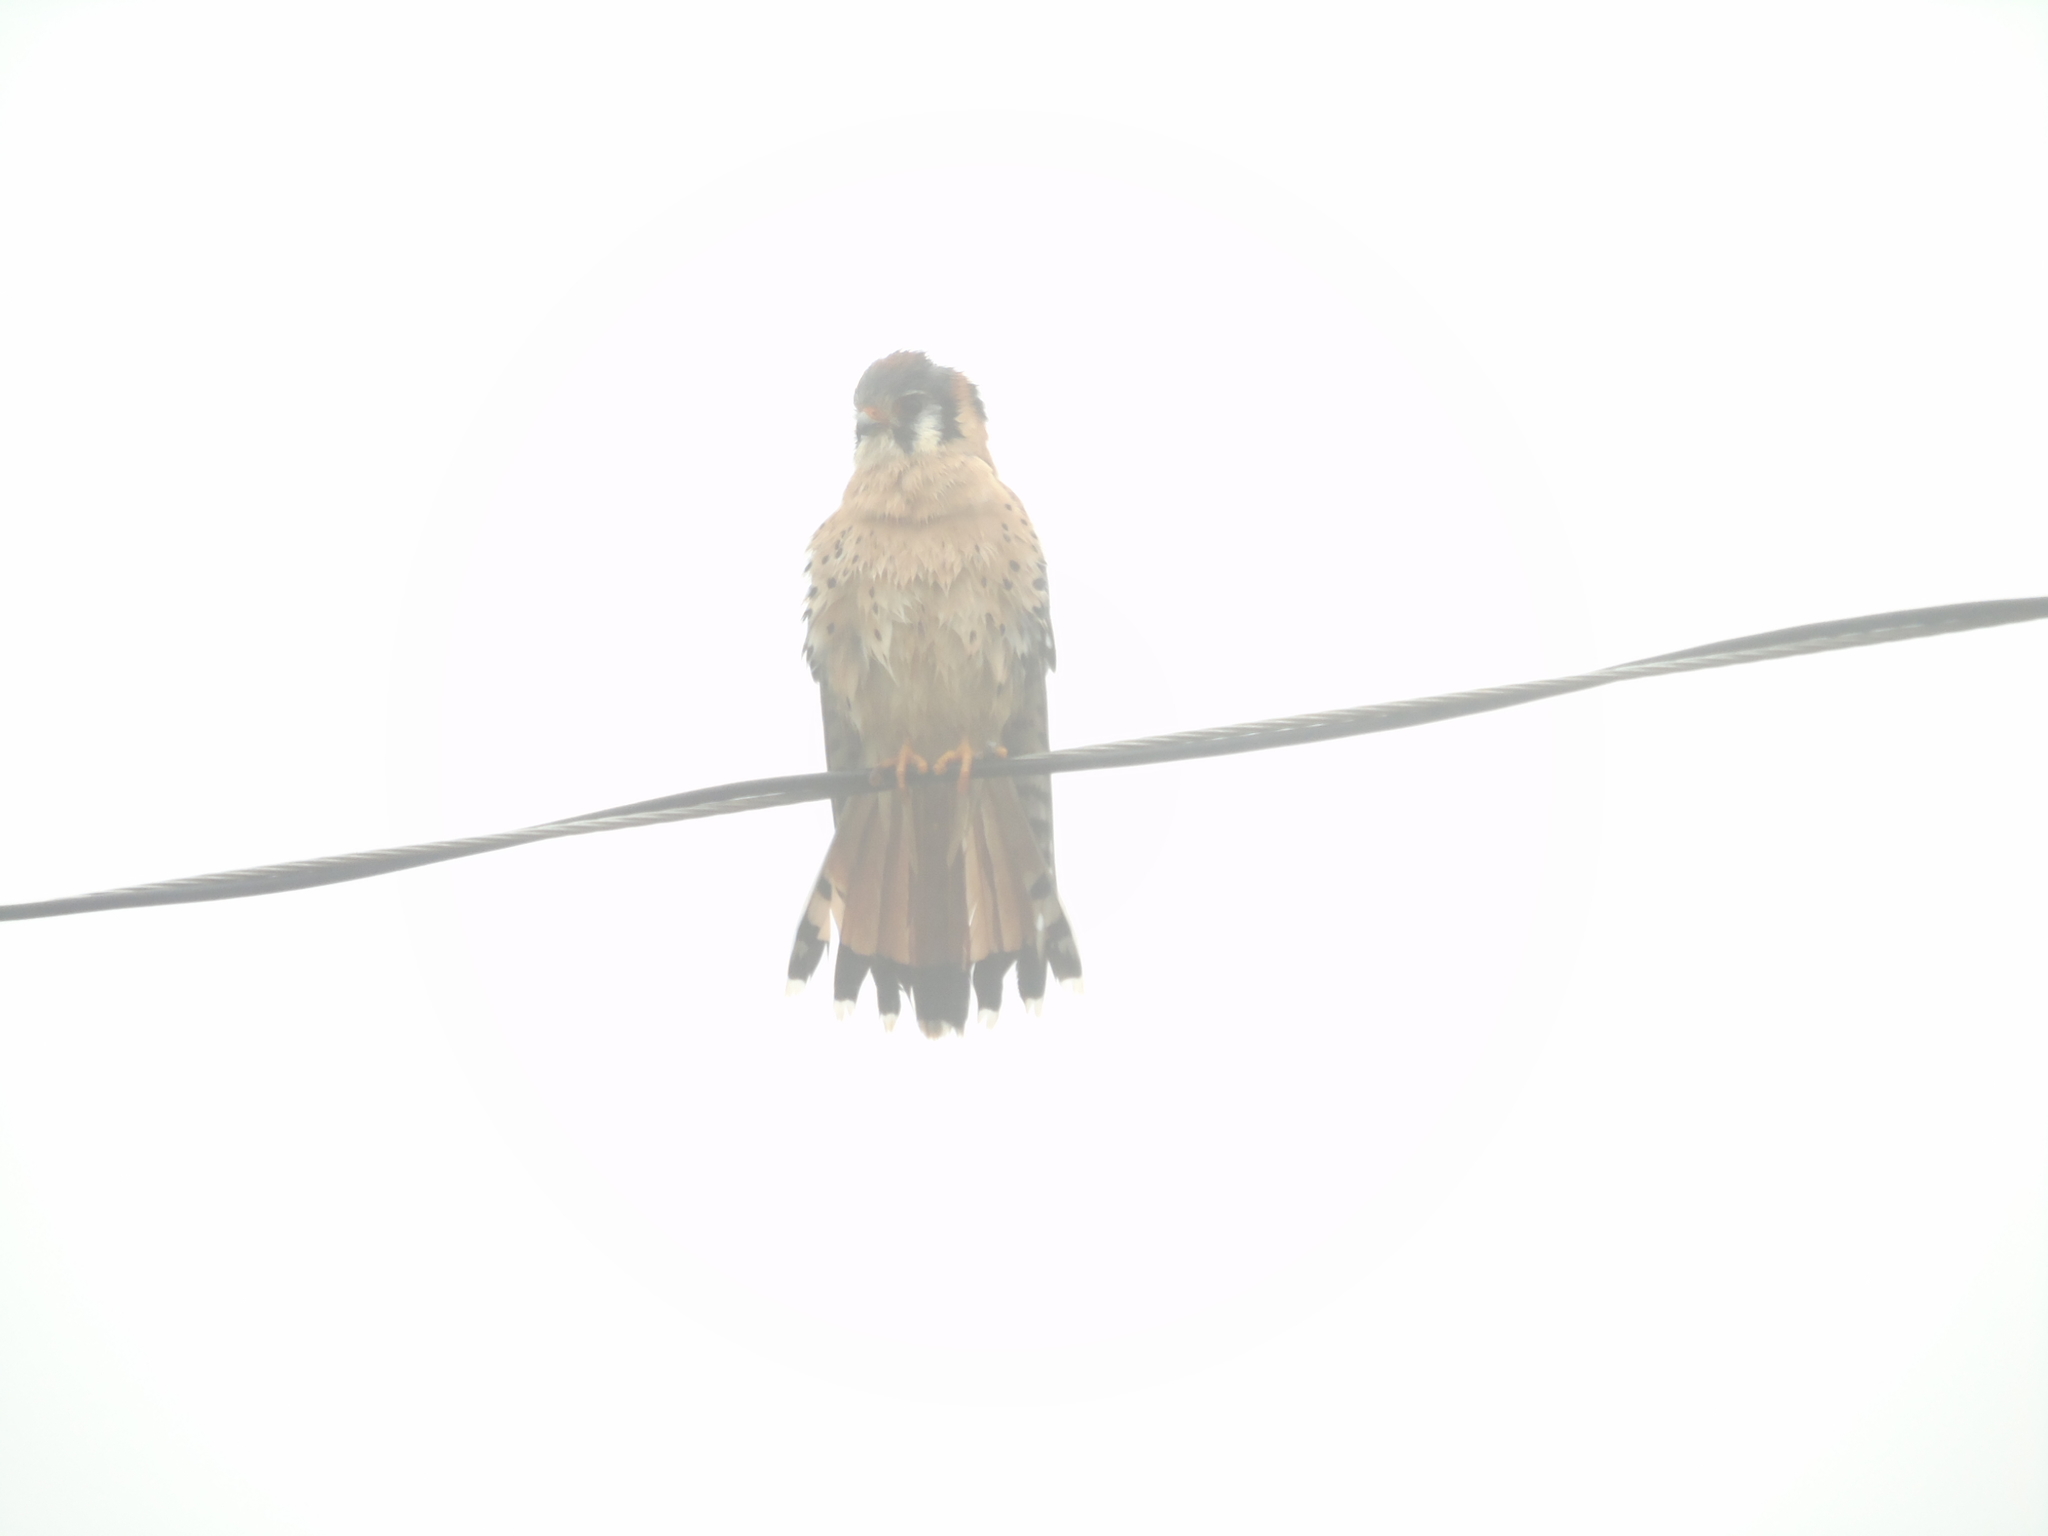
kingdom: Animalia
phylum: Chordata
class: Aves
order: Falconiformes
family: Falconidae
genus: Falco
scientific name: Falco sparverius
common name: American kestrel
